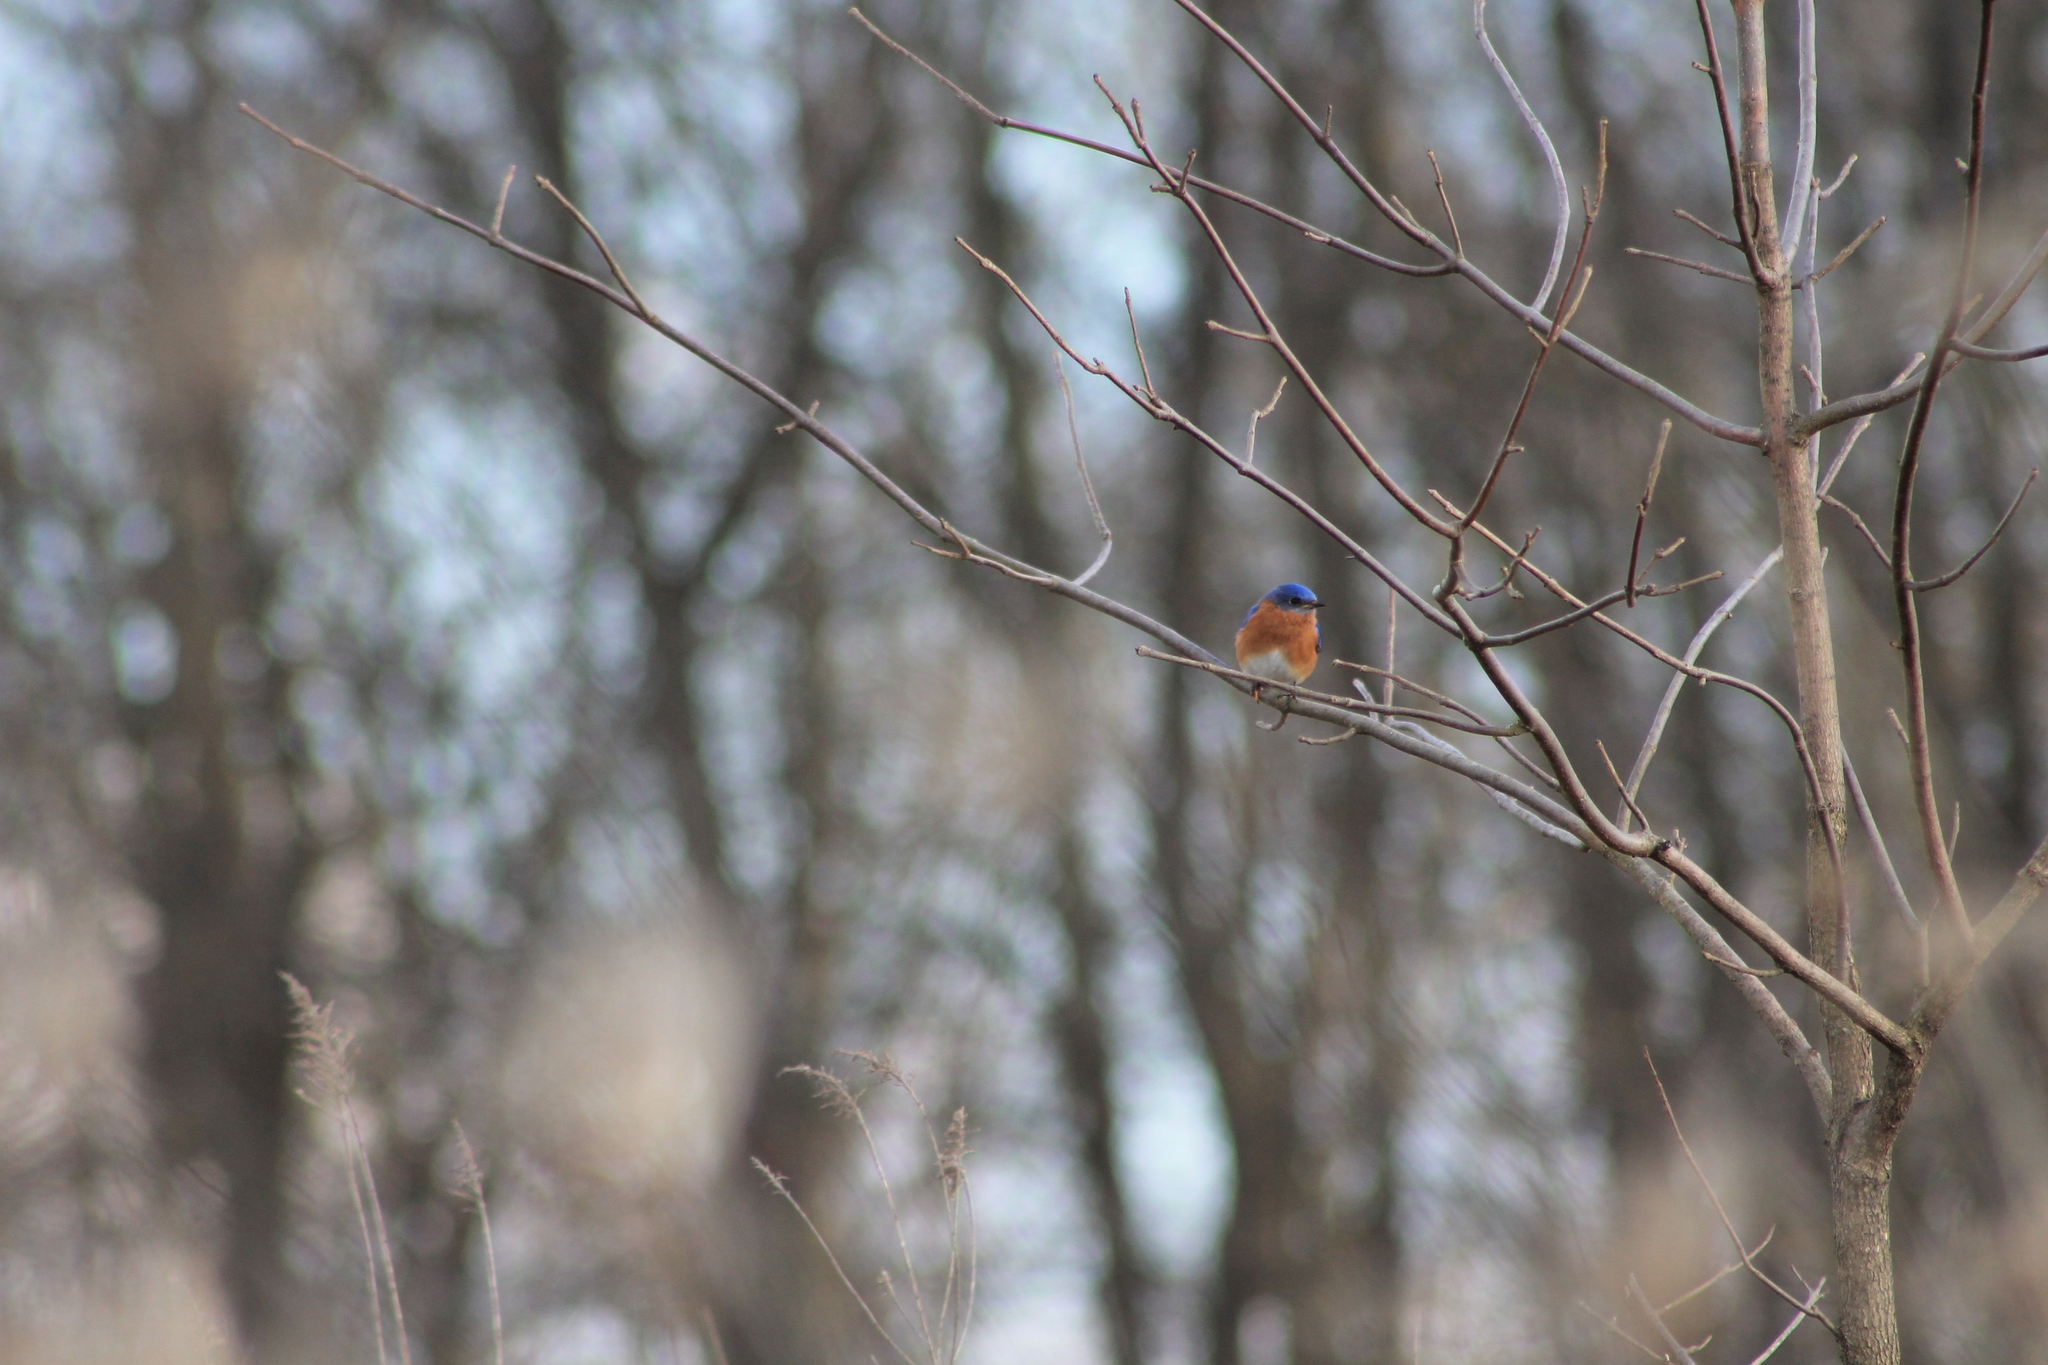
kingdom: Animalia
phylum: Chordata
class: Aves
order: Passeriformes
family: Turdidae
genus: Sialia
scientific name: Sialia sialis
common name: Eastern bluebird
